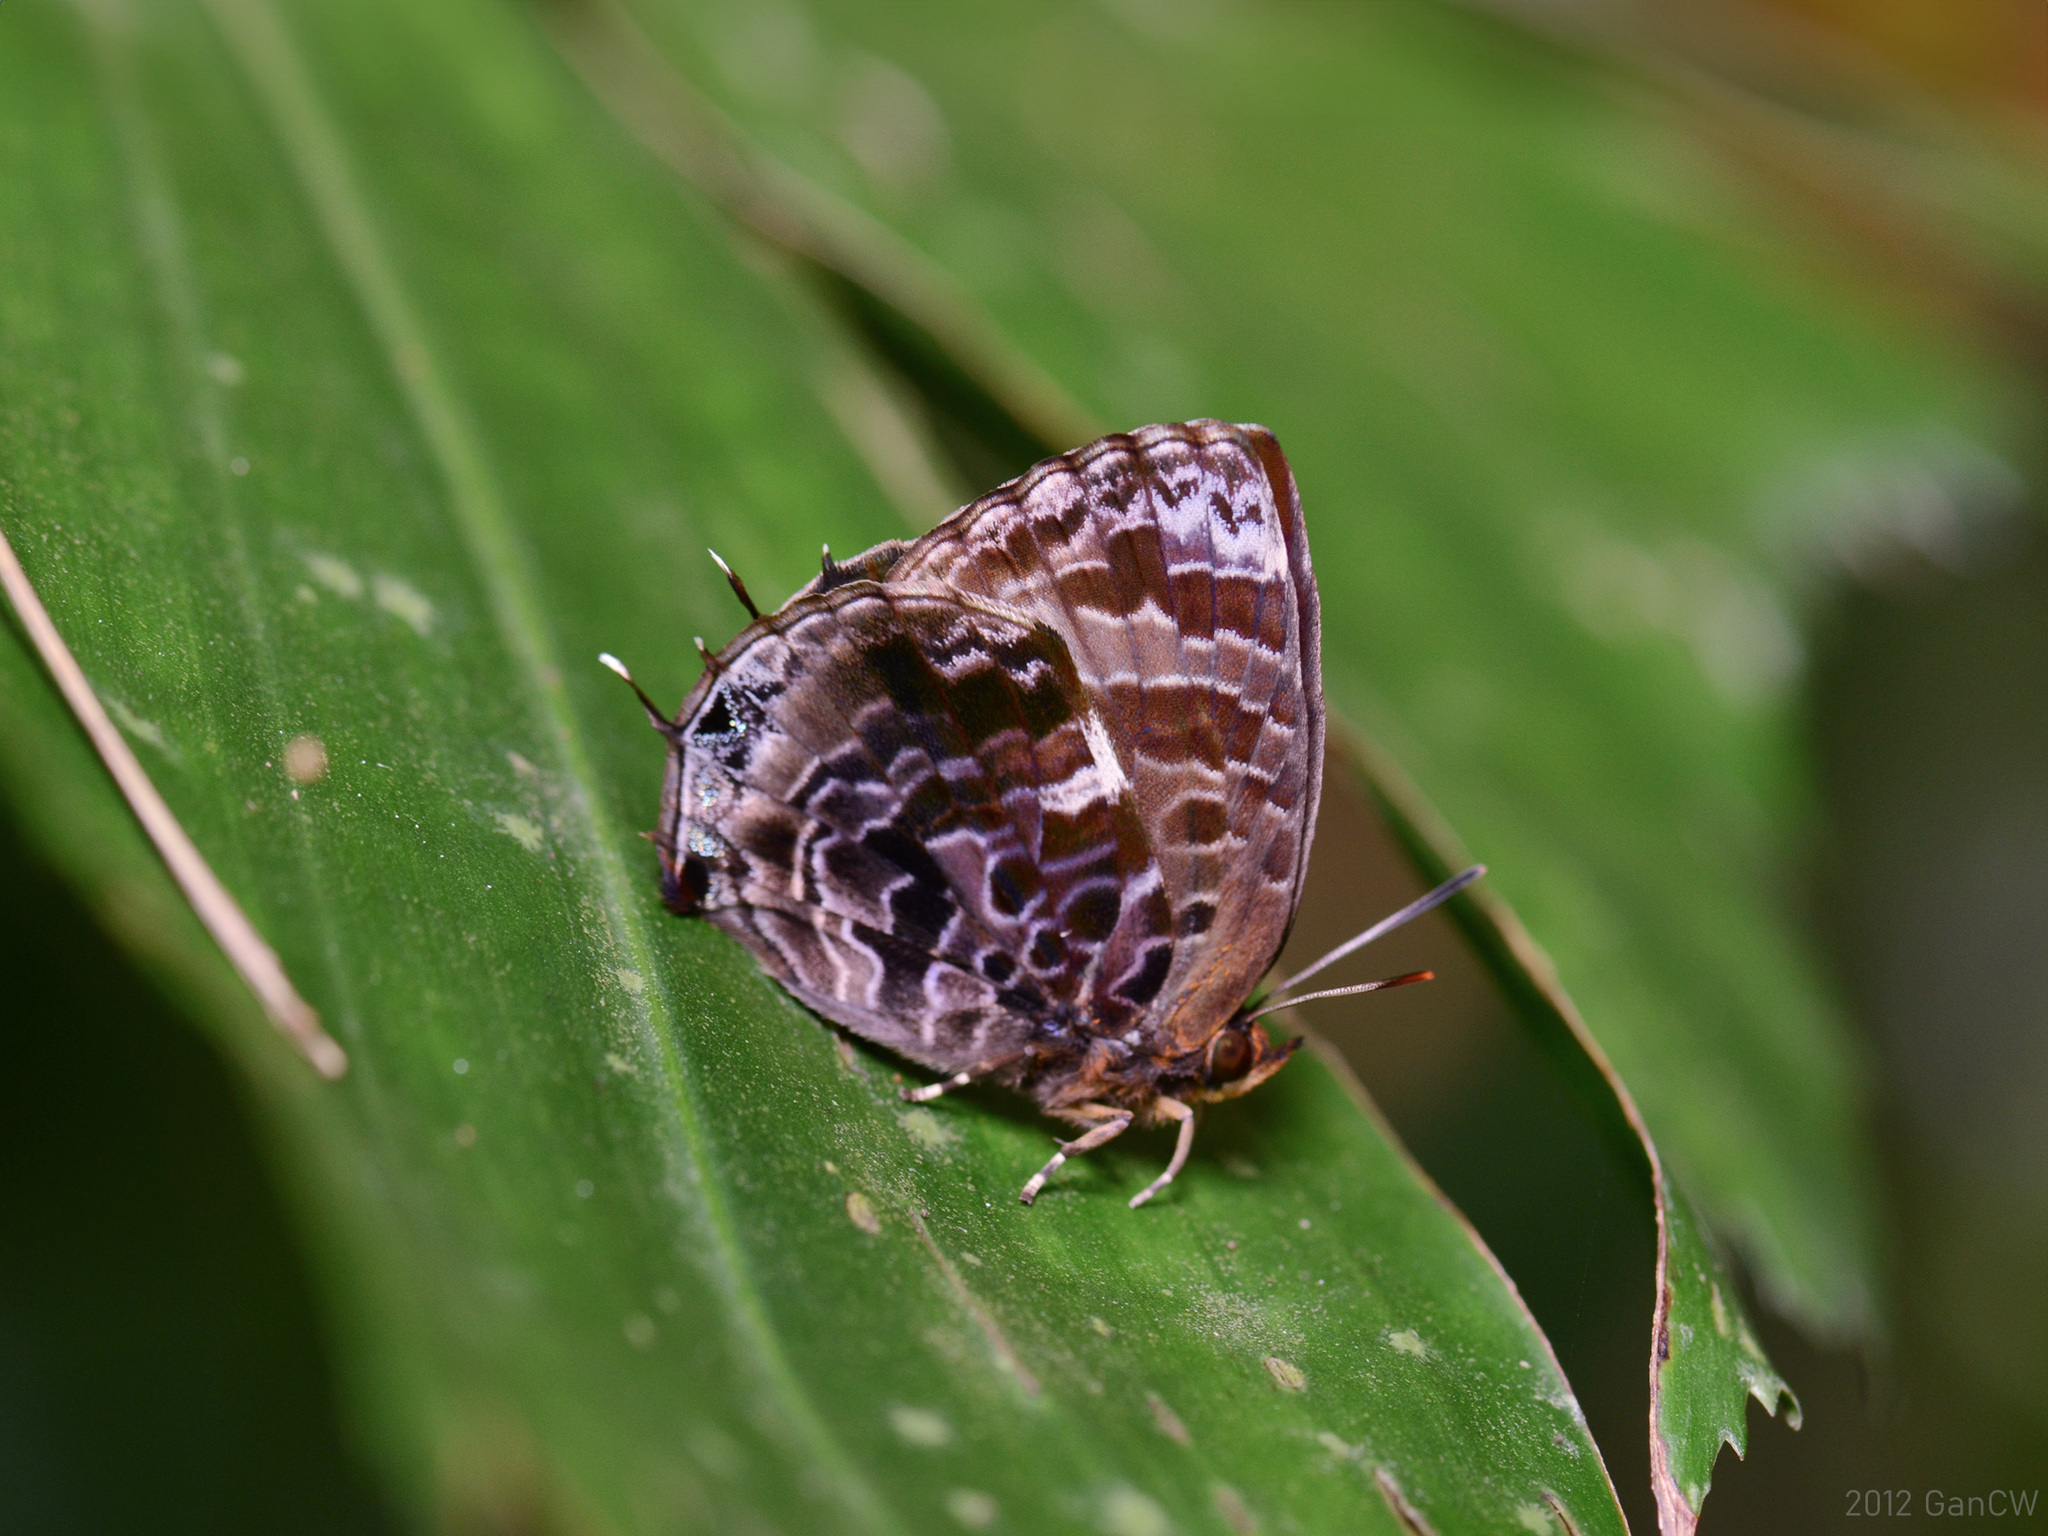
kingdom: Animalia
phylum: Arthropoda
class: Insecta
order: Lepidoptera
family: Lycaenidae
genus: Arhopala
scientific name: Arhopala abseus
